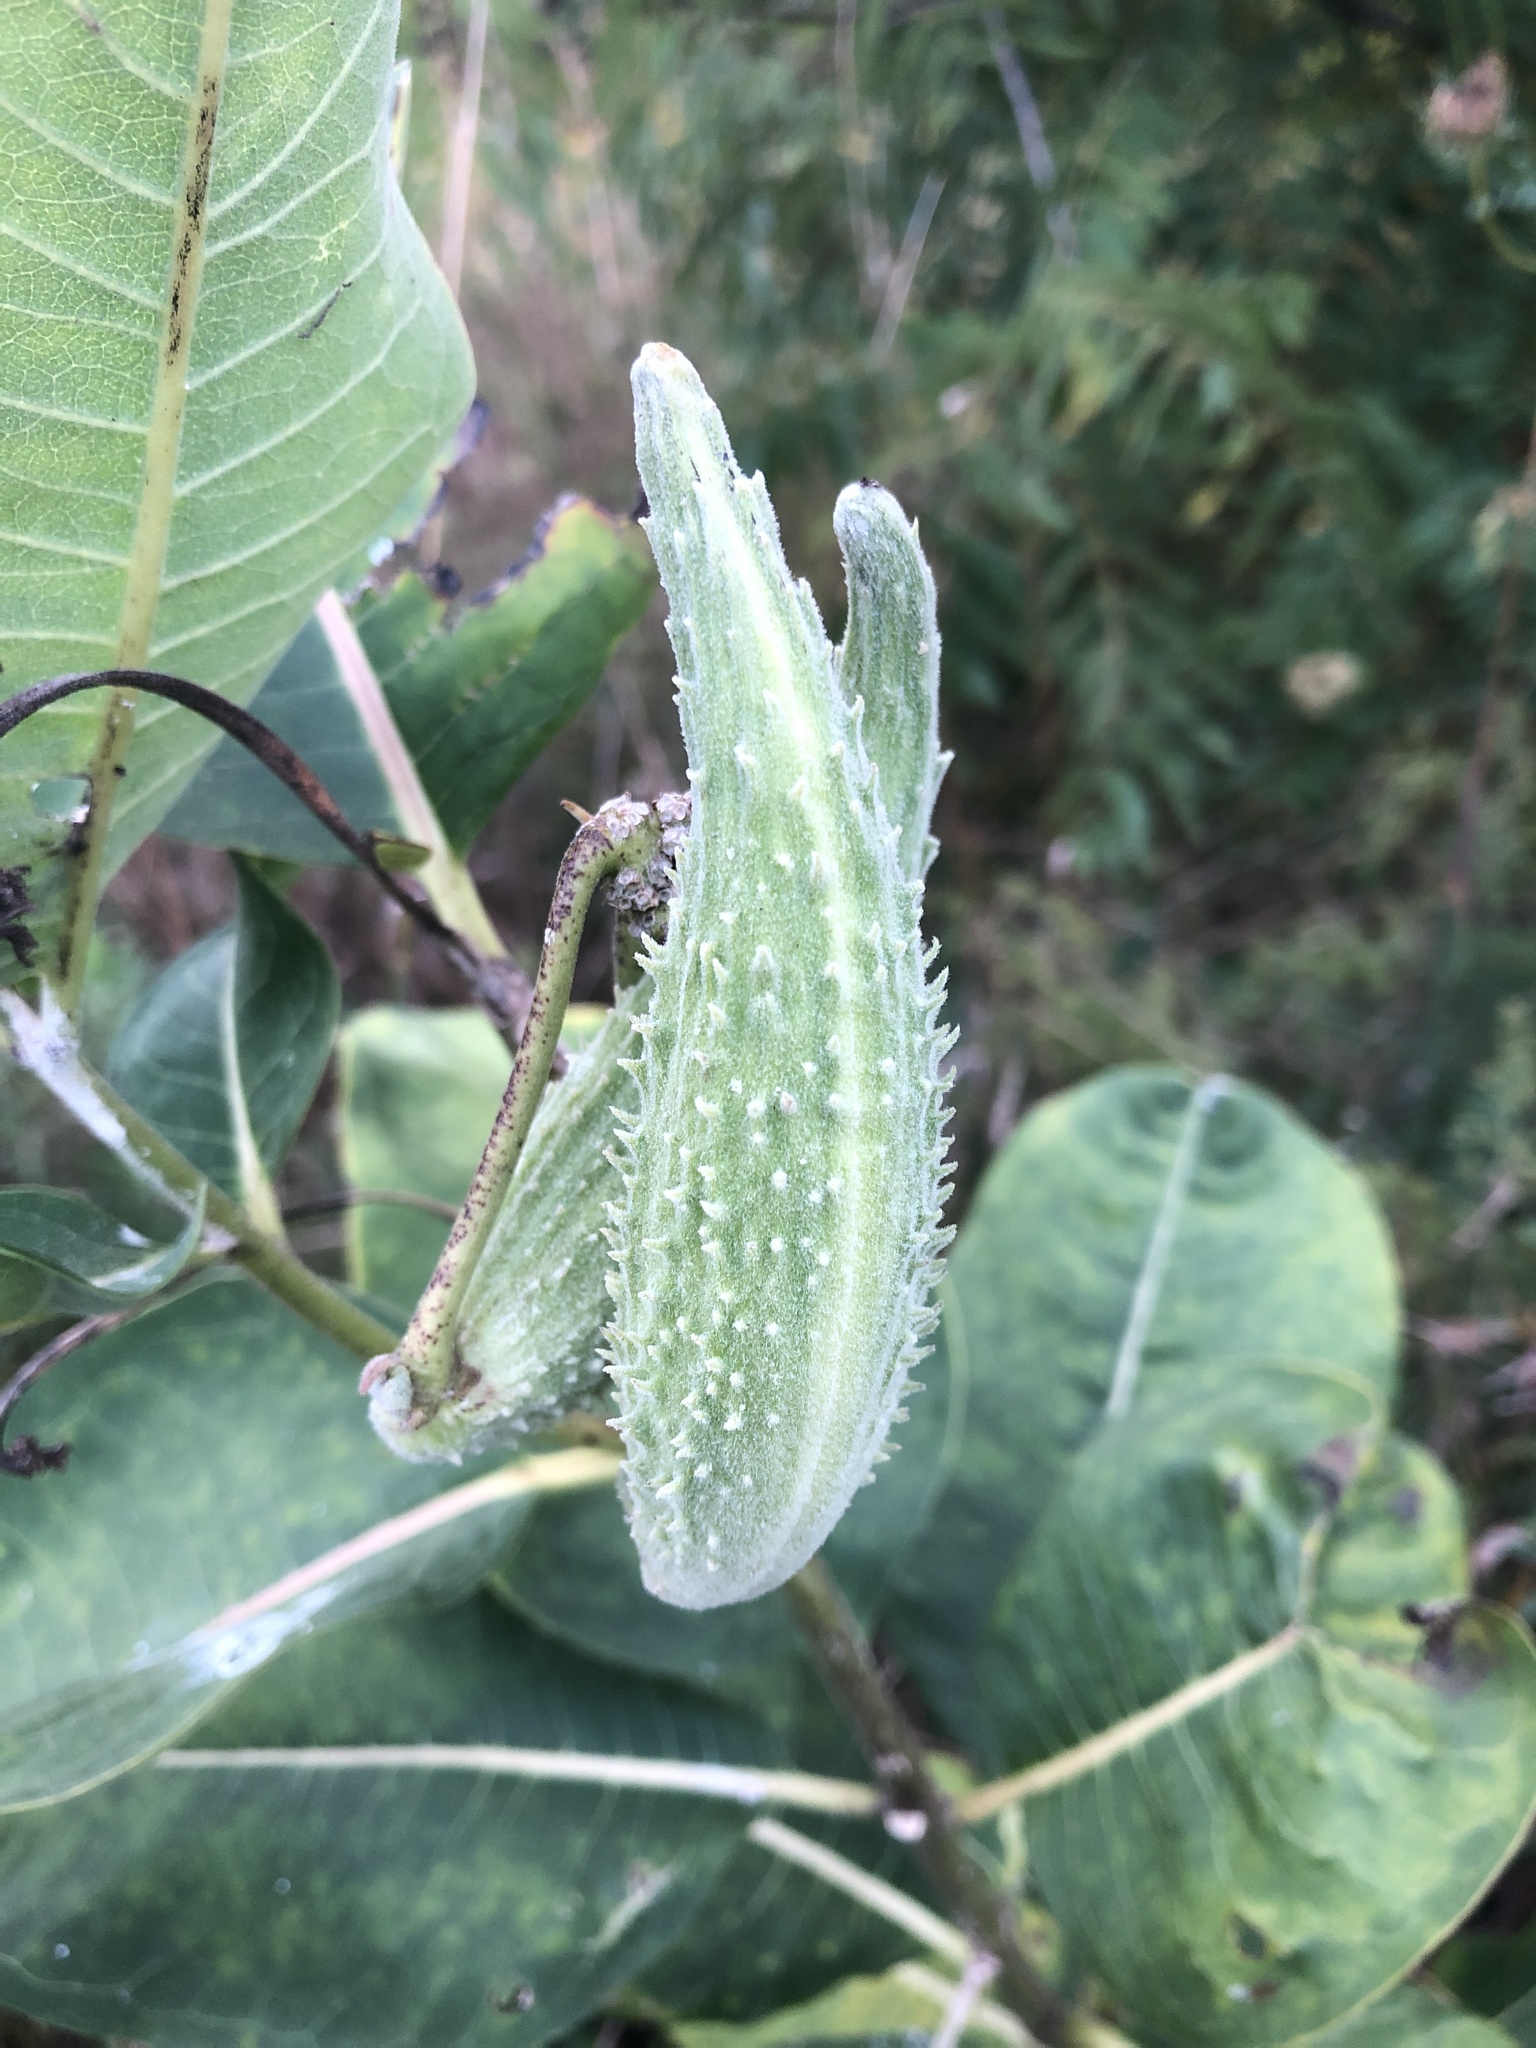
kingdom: Plantae
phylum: Tracheophyta
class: Magnoliopsida
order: Gentianales
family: Apocynaceae
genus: Asclepias
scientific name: Asclepias syriaca
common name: Common milkweed
